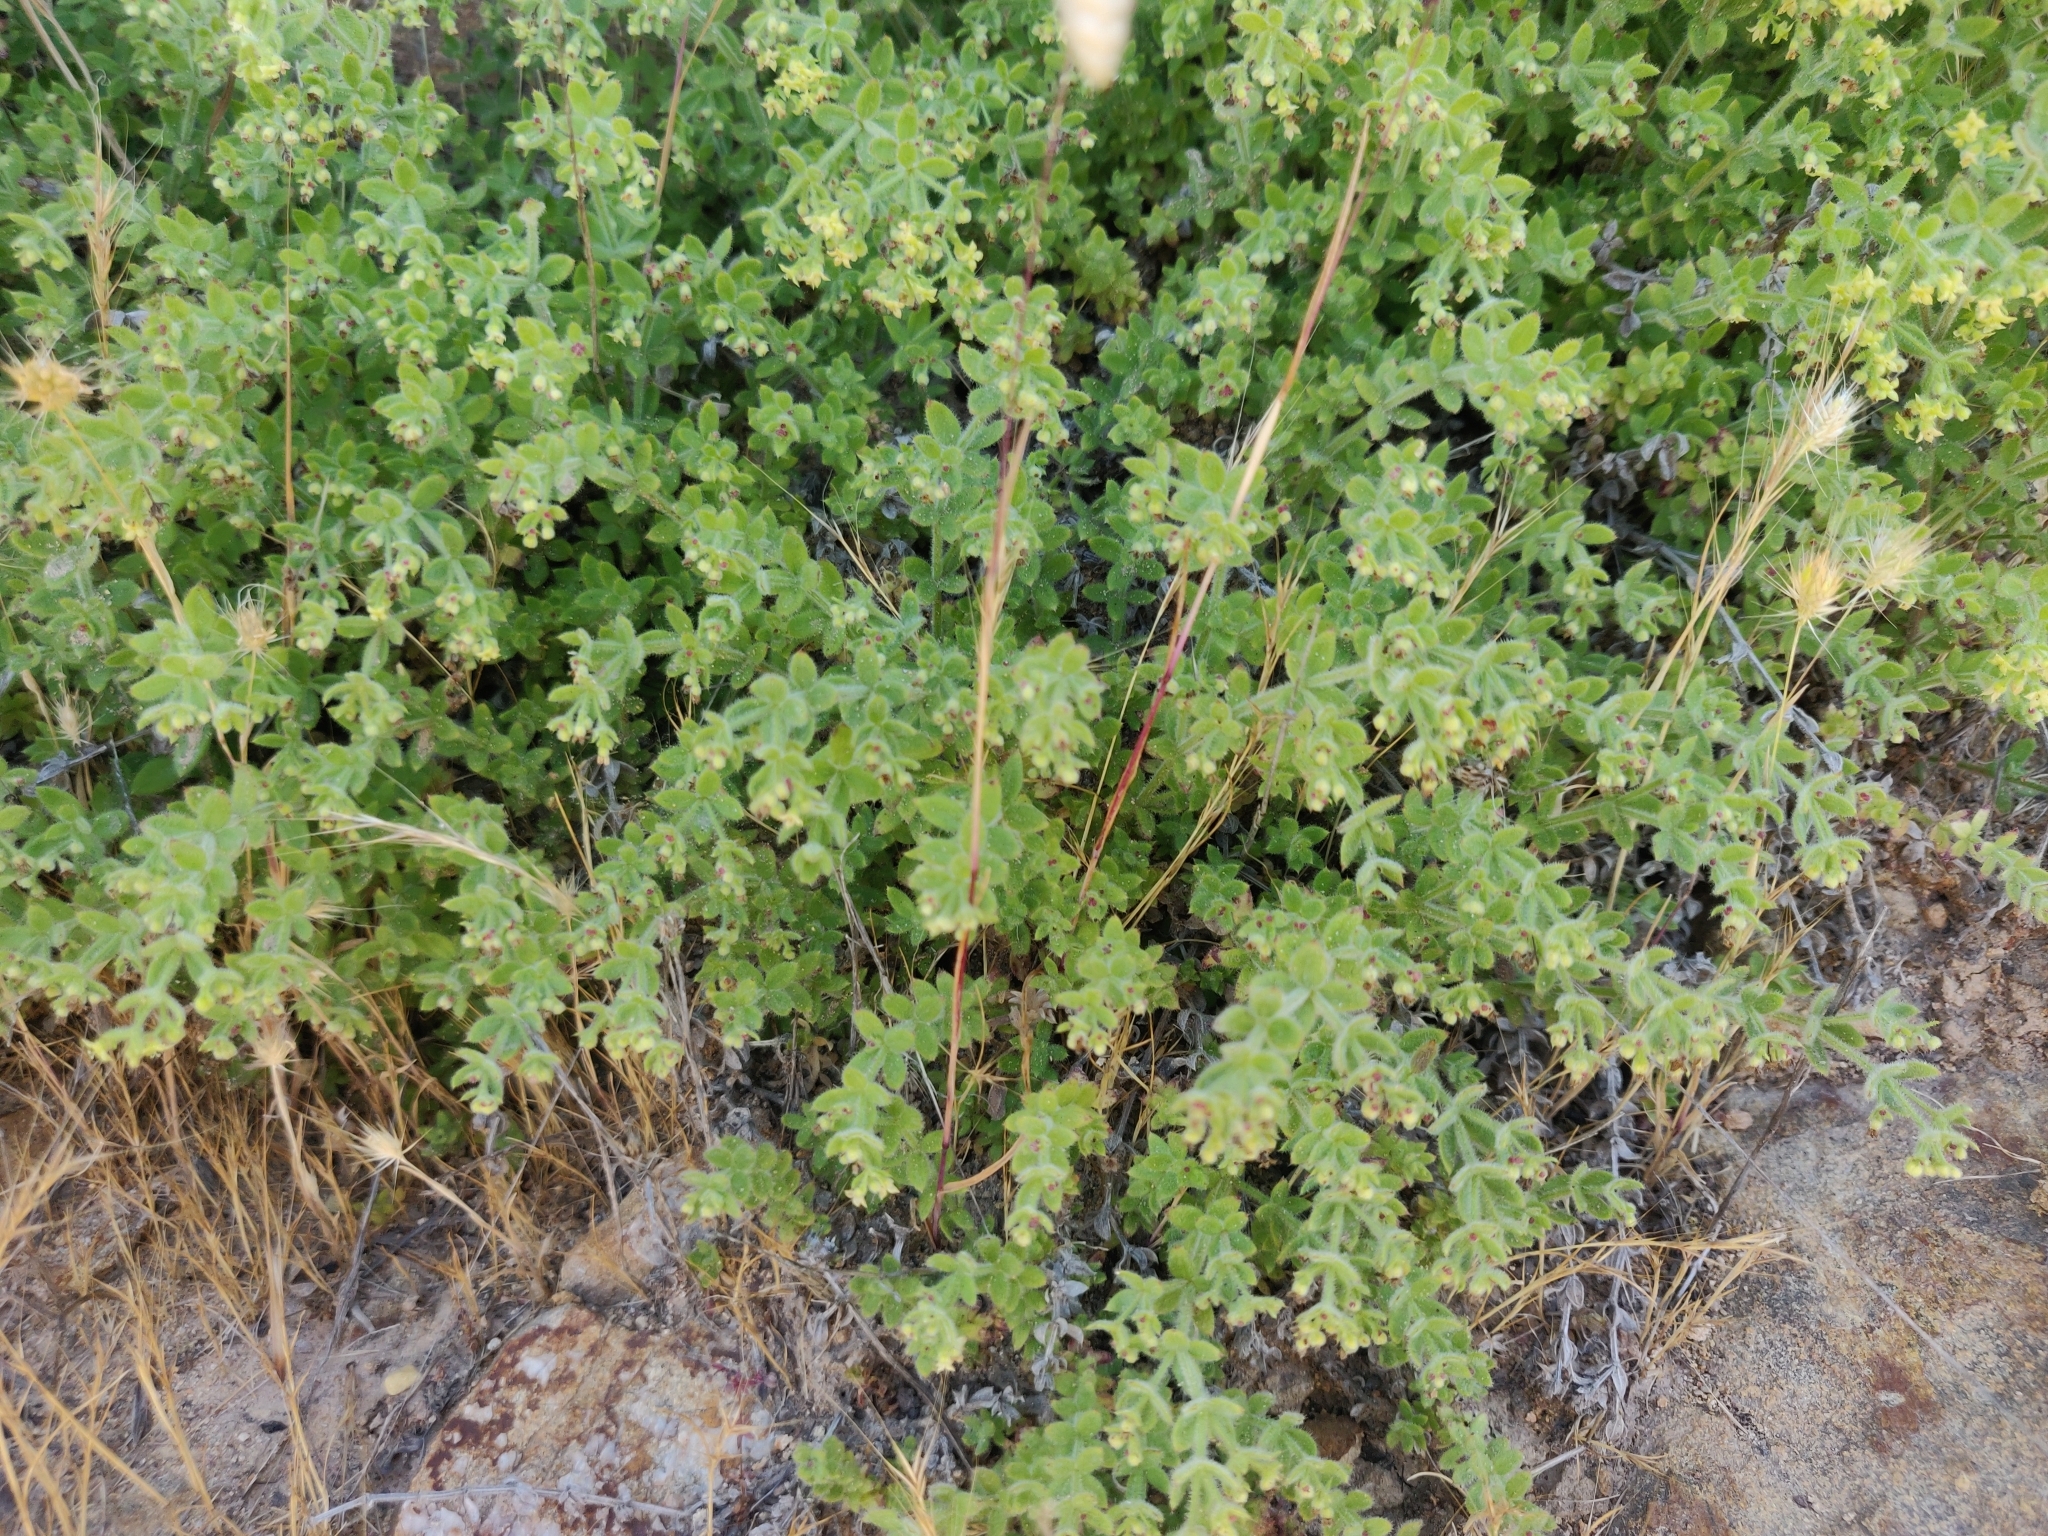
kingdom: Plantae
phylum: Tracheophyta
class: Magnoliopsida
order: Gentianales
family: Rubiaceae
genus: Galium
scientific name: Galium californicum
